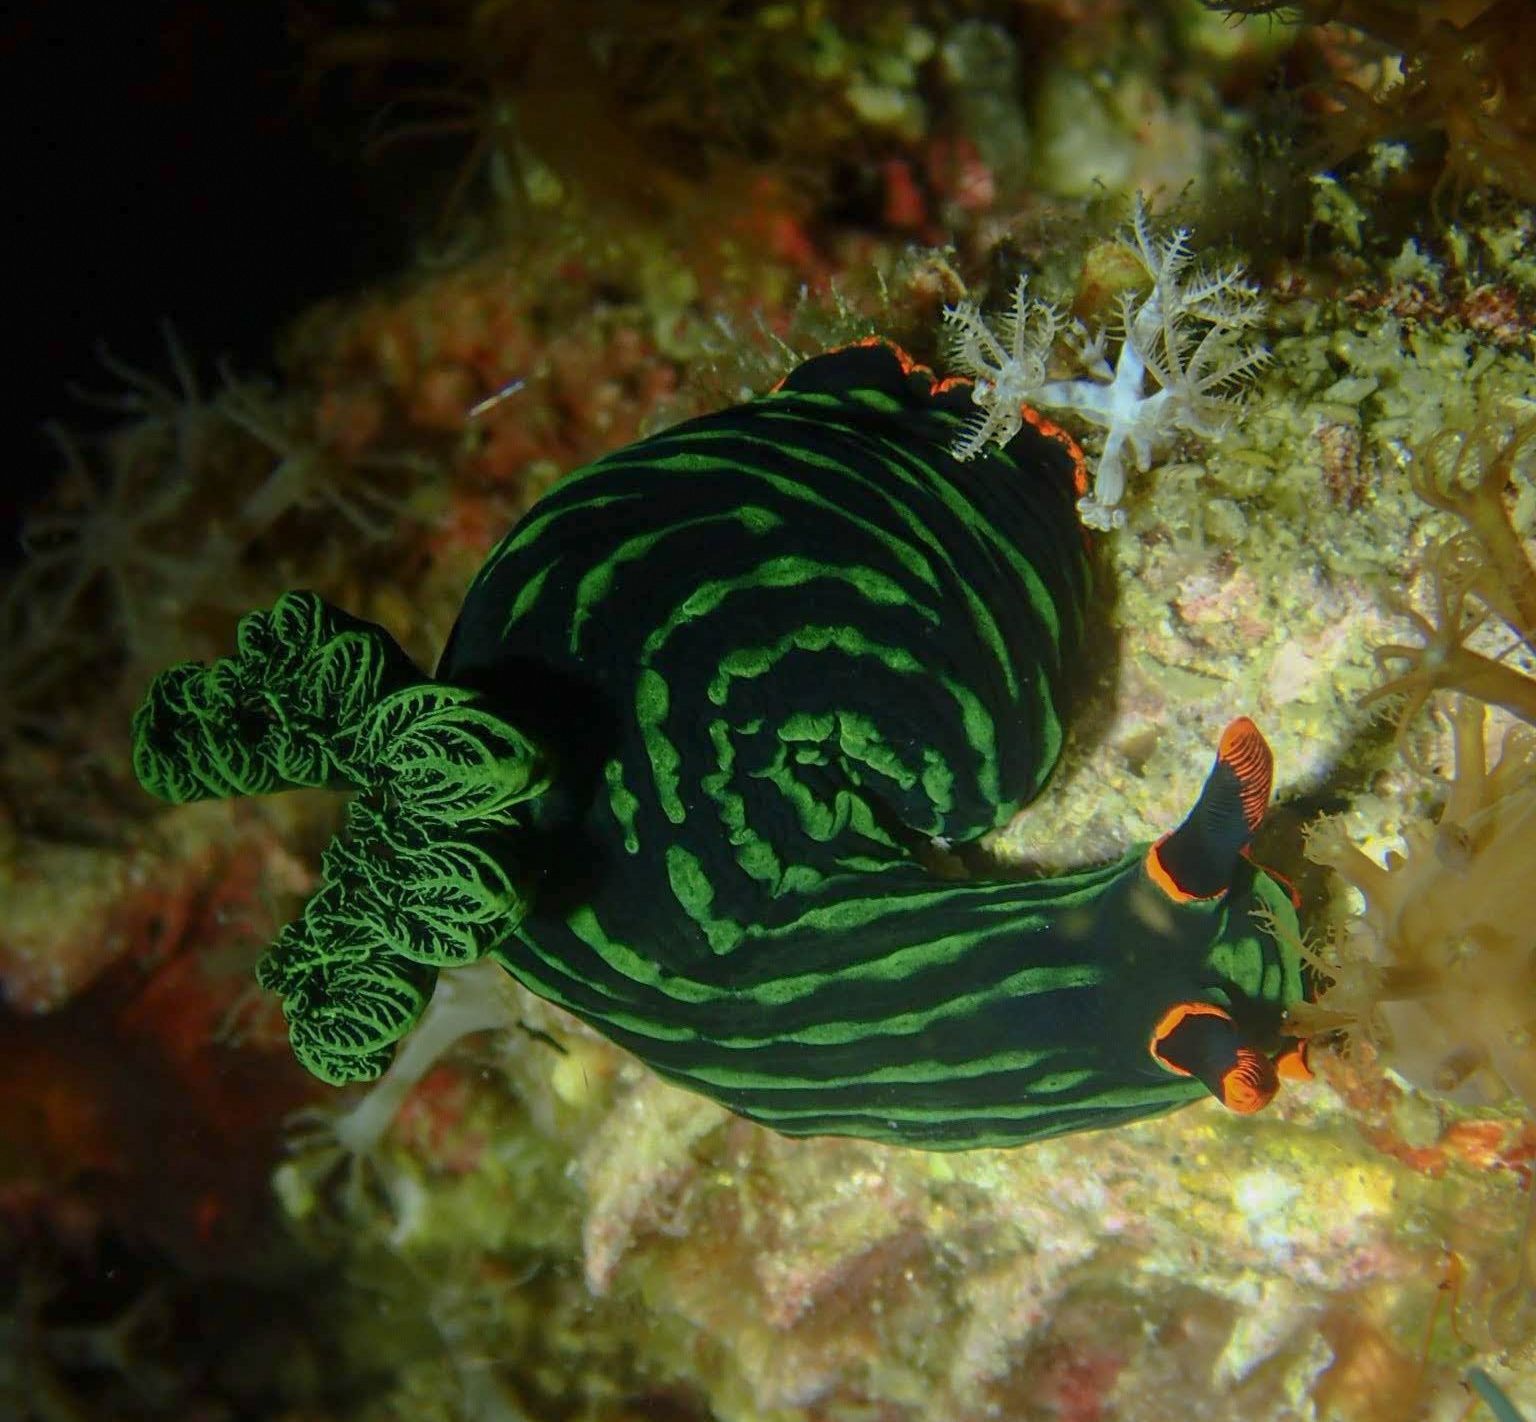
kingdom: Animalia
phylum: Mollusca
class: Gastropoda
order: Nudibranchia
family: Polyceridae
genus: Nembrotha
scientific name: Nembrotha kubaryana
